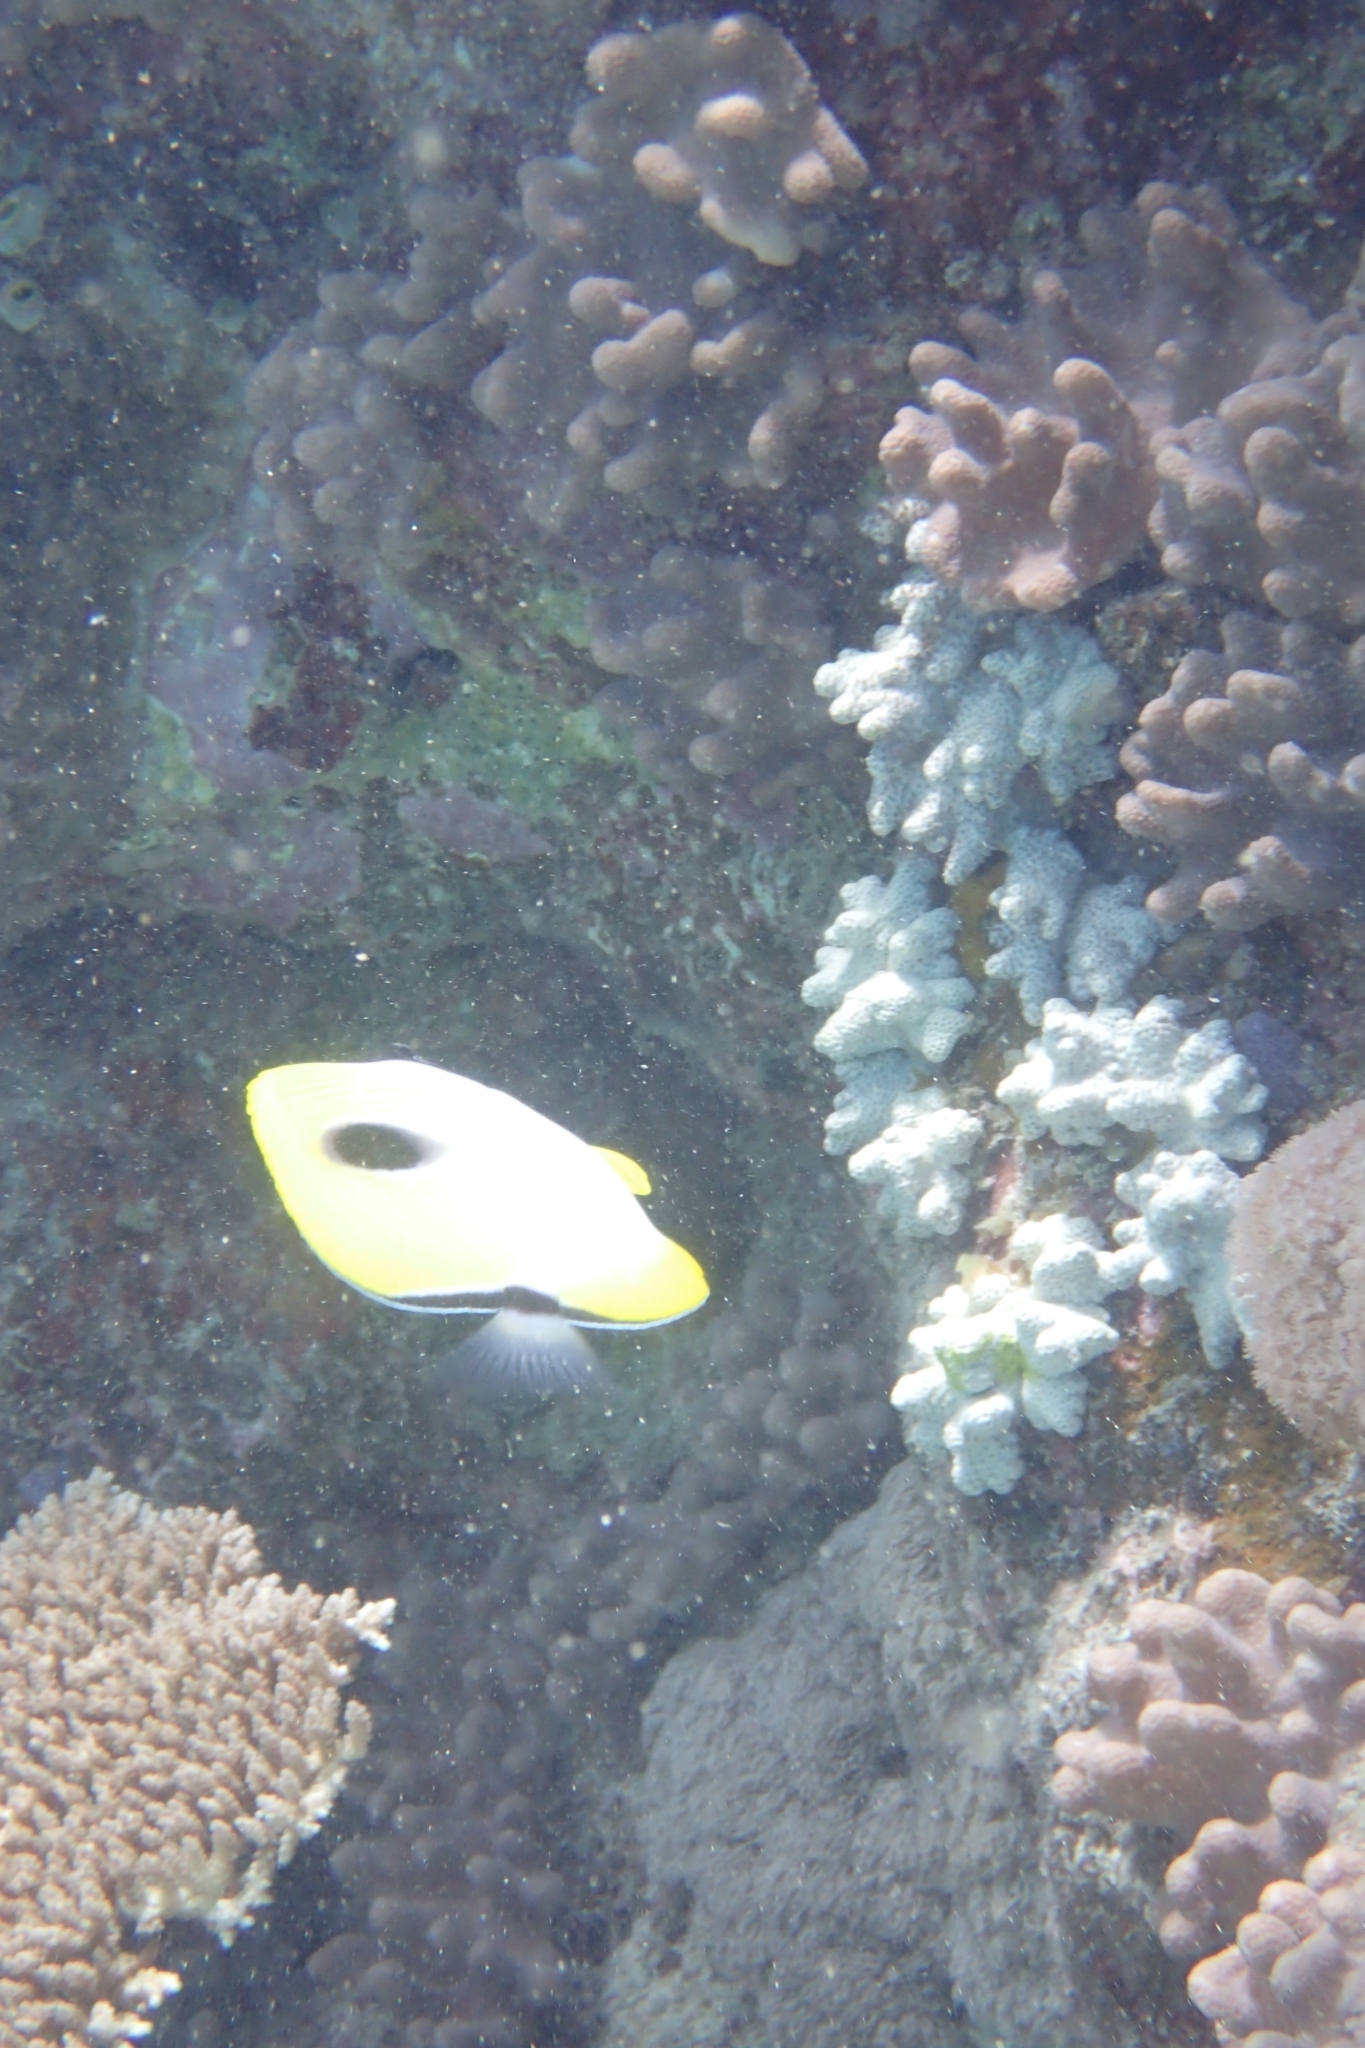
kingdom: Animalia
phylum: Chordata
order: Perciformes
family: Chaetodontidae
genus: Chaetodon
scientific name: Chaetodon unimaculatus
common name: Teardrop butterflyfish
